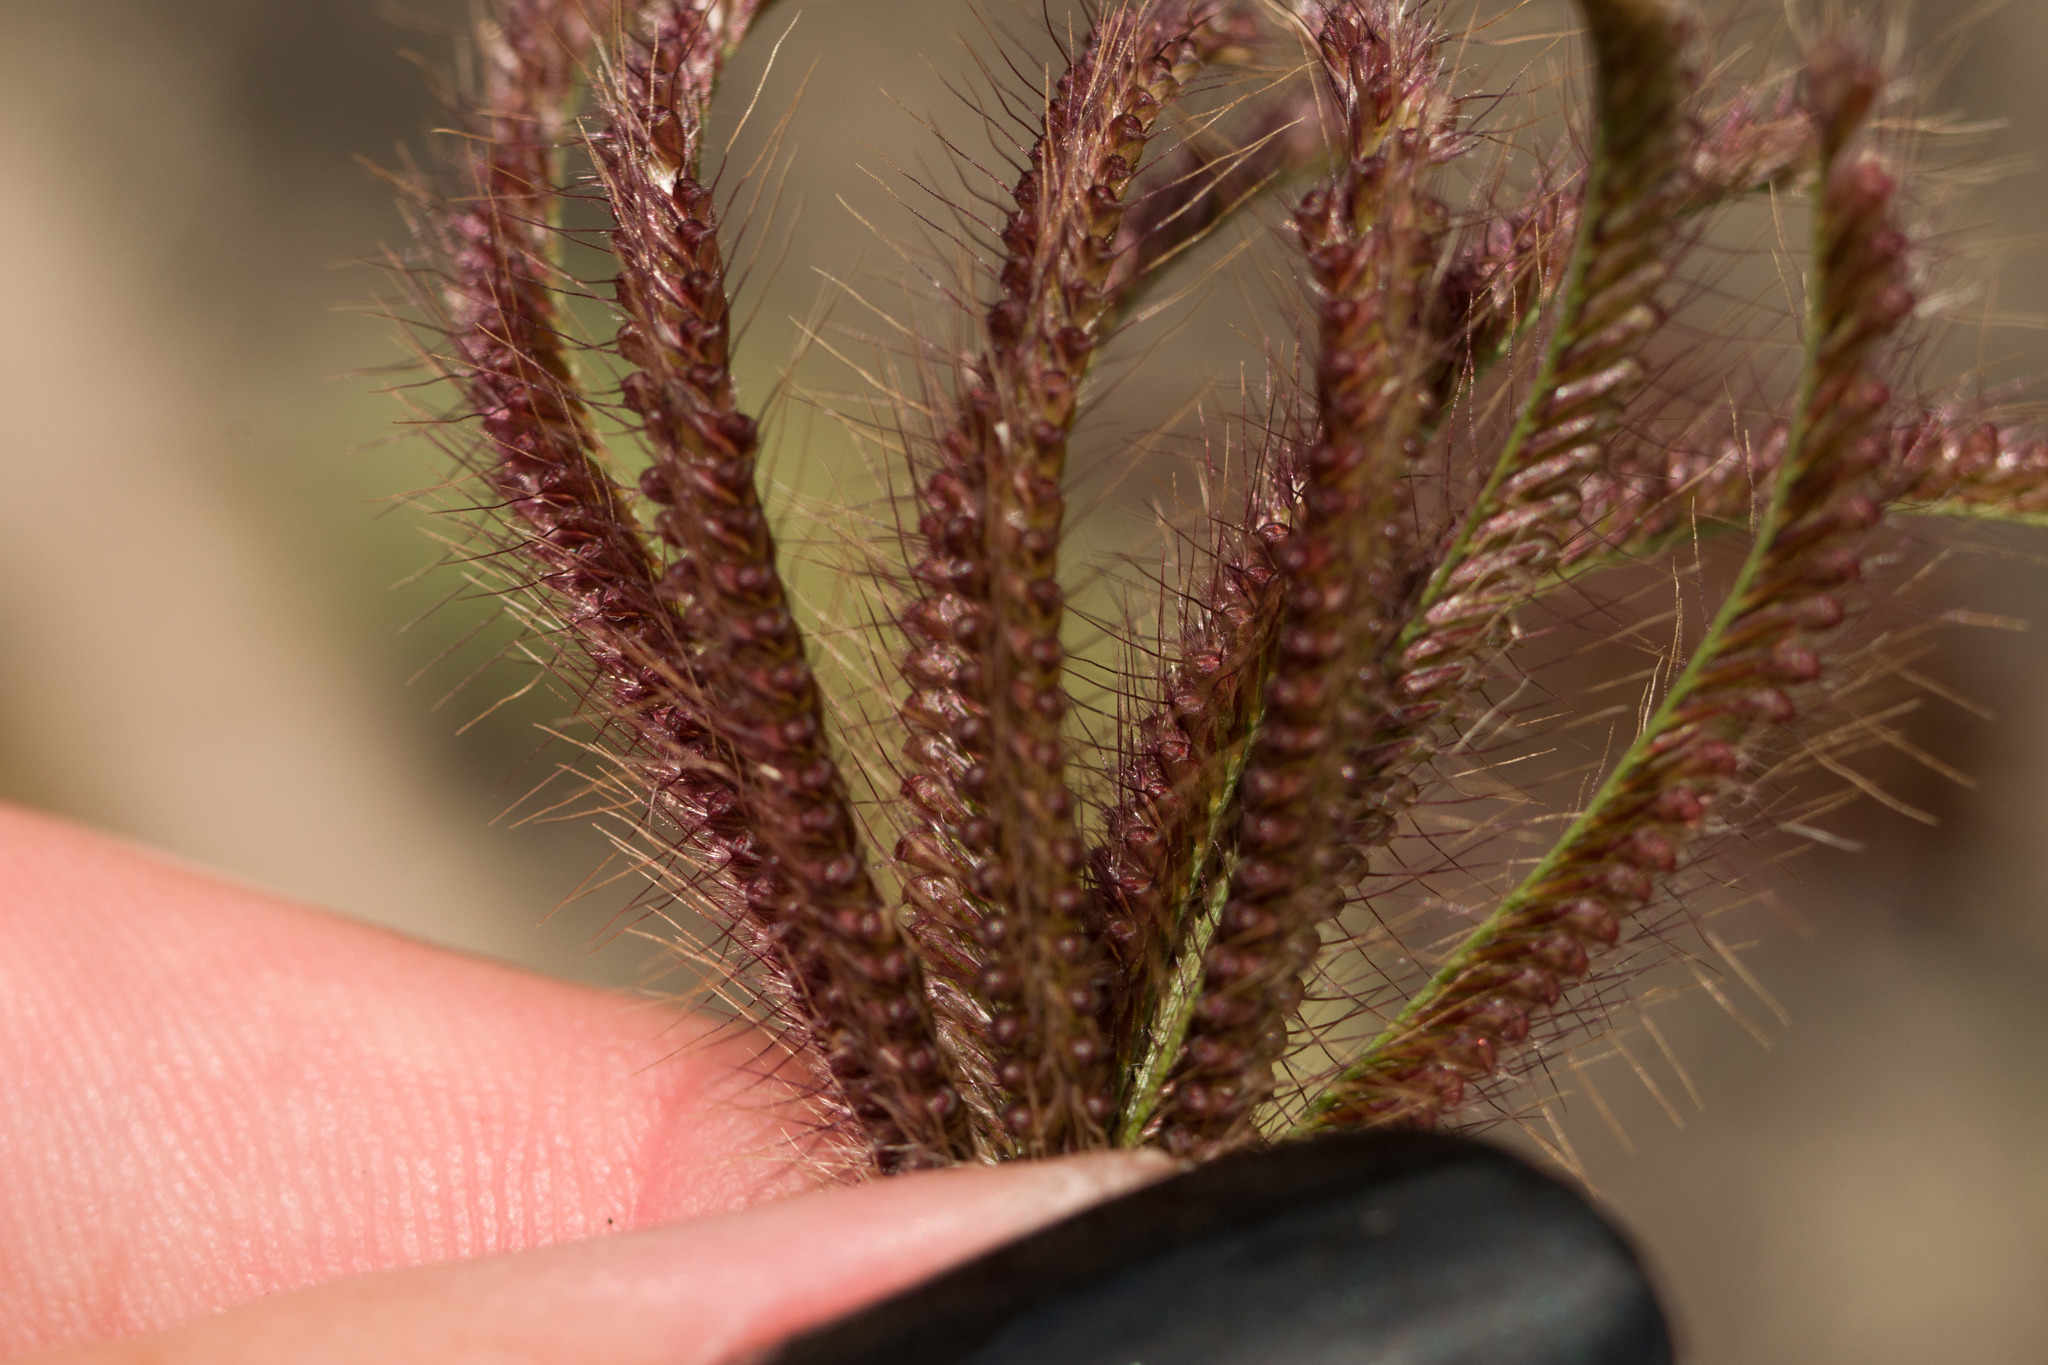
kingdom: Plantae
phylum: Tracheophyta
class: Liliopsida
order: Poales
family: Poaceae
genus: Chloris
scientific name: Chloris barbata
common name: Swollen fingergrass
